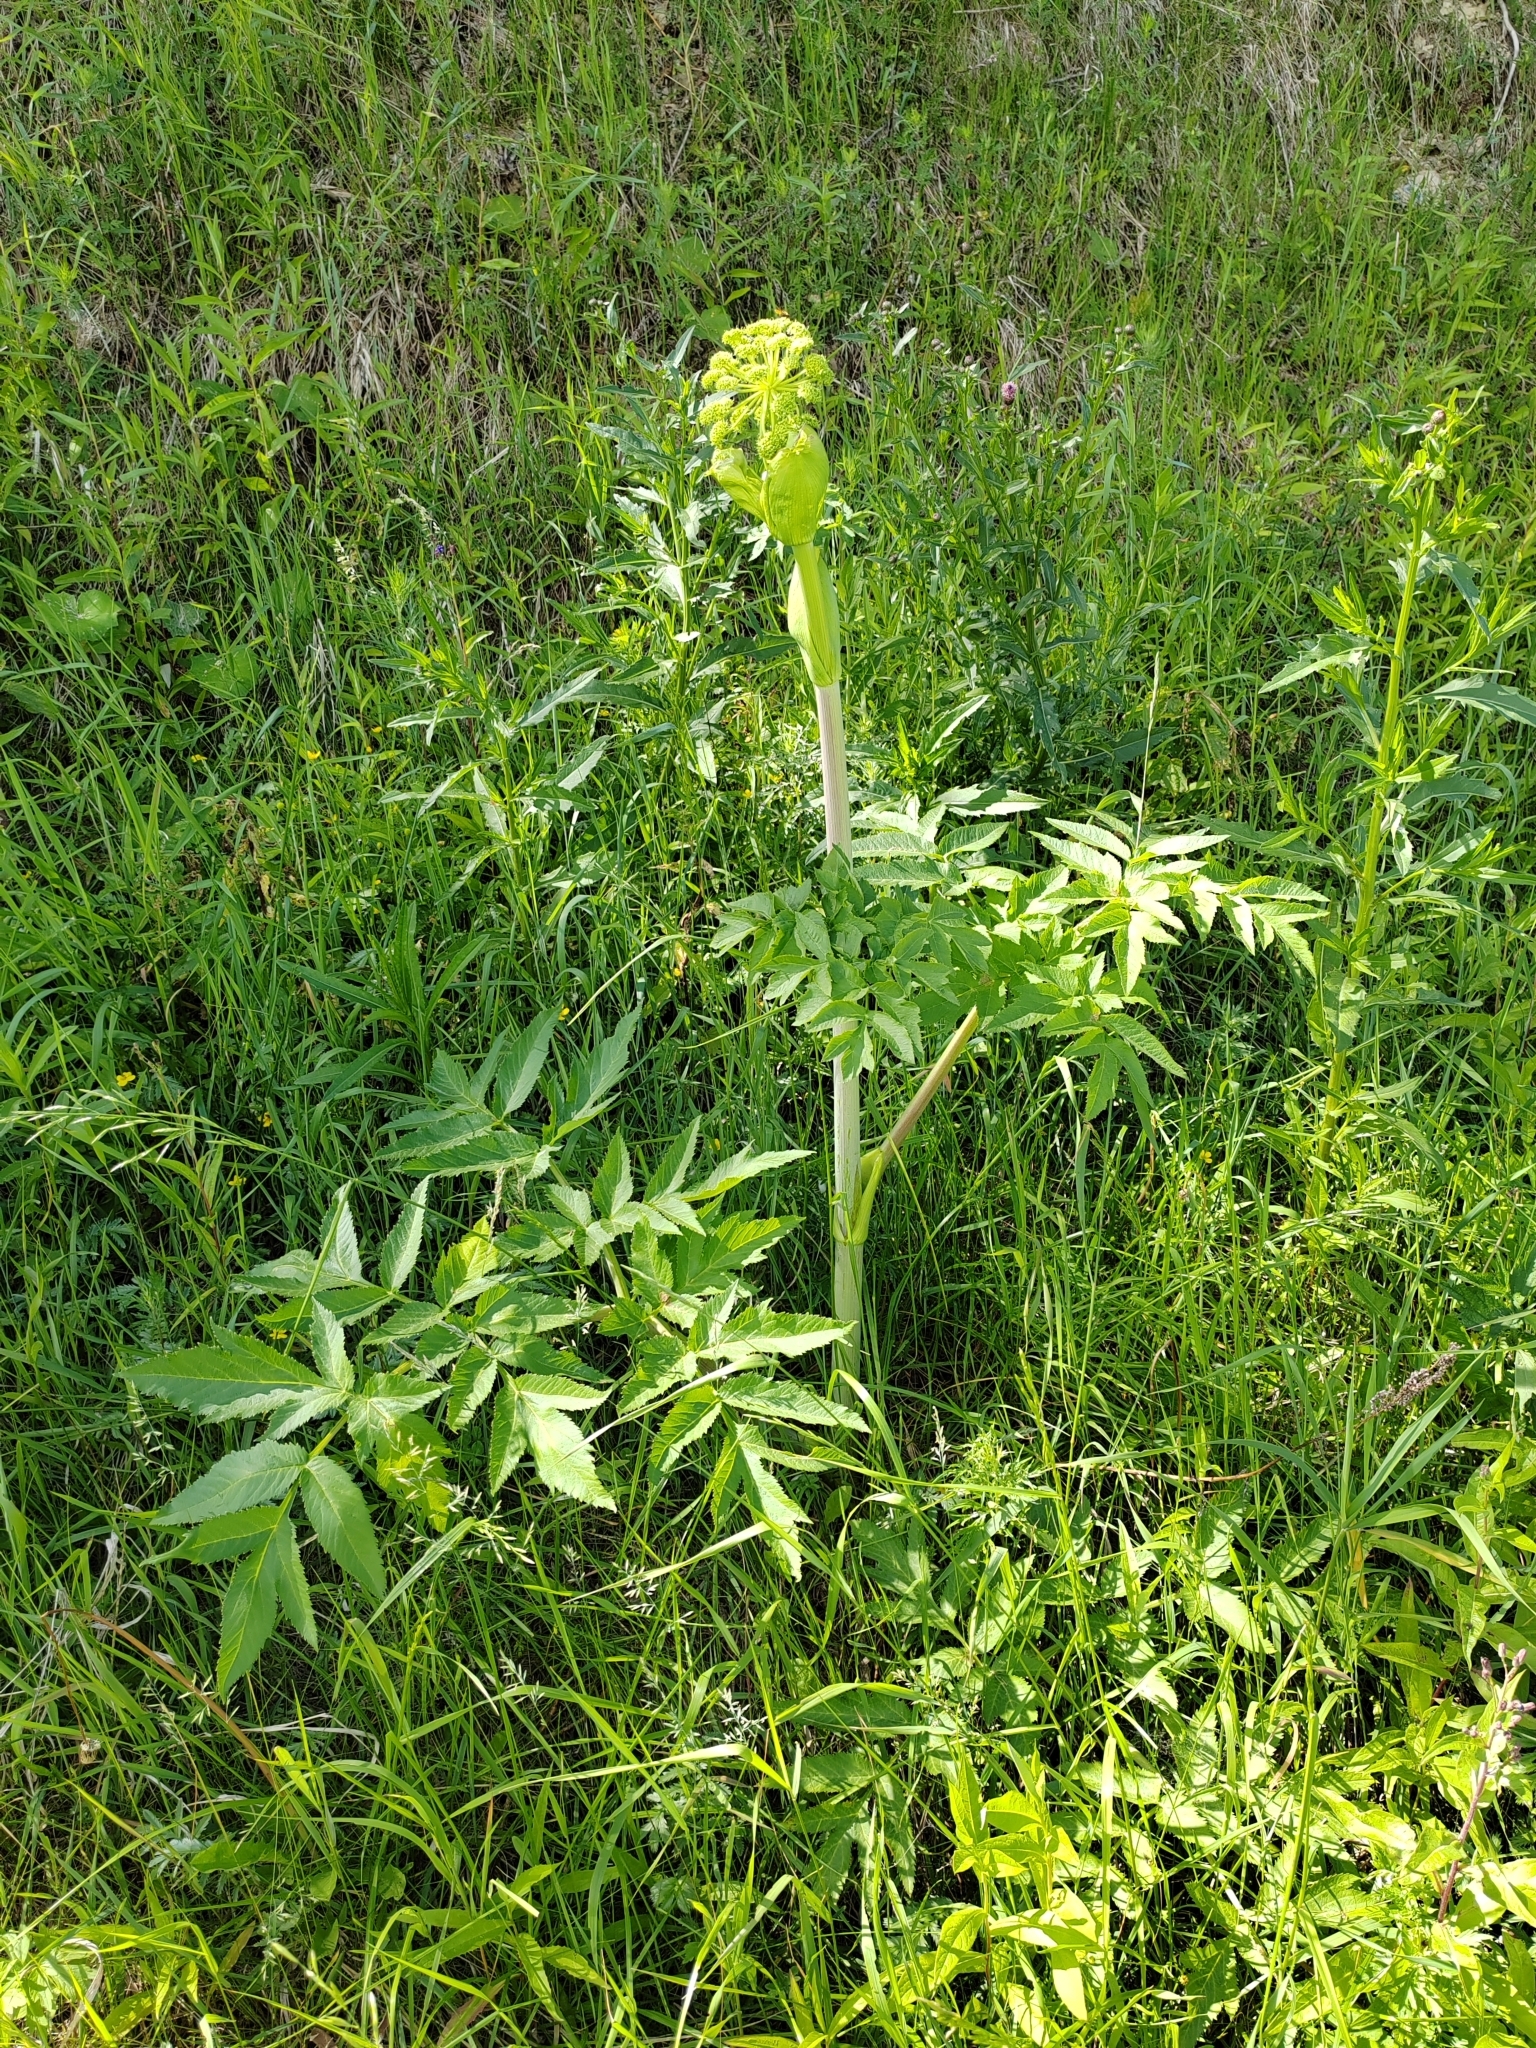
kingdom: Plantae
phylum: Tracheophyta
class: Magnoliopsida
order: Apiales
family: Apiaceae
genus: Angelica
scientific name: Angelica decurrens
